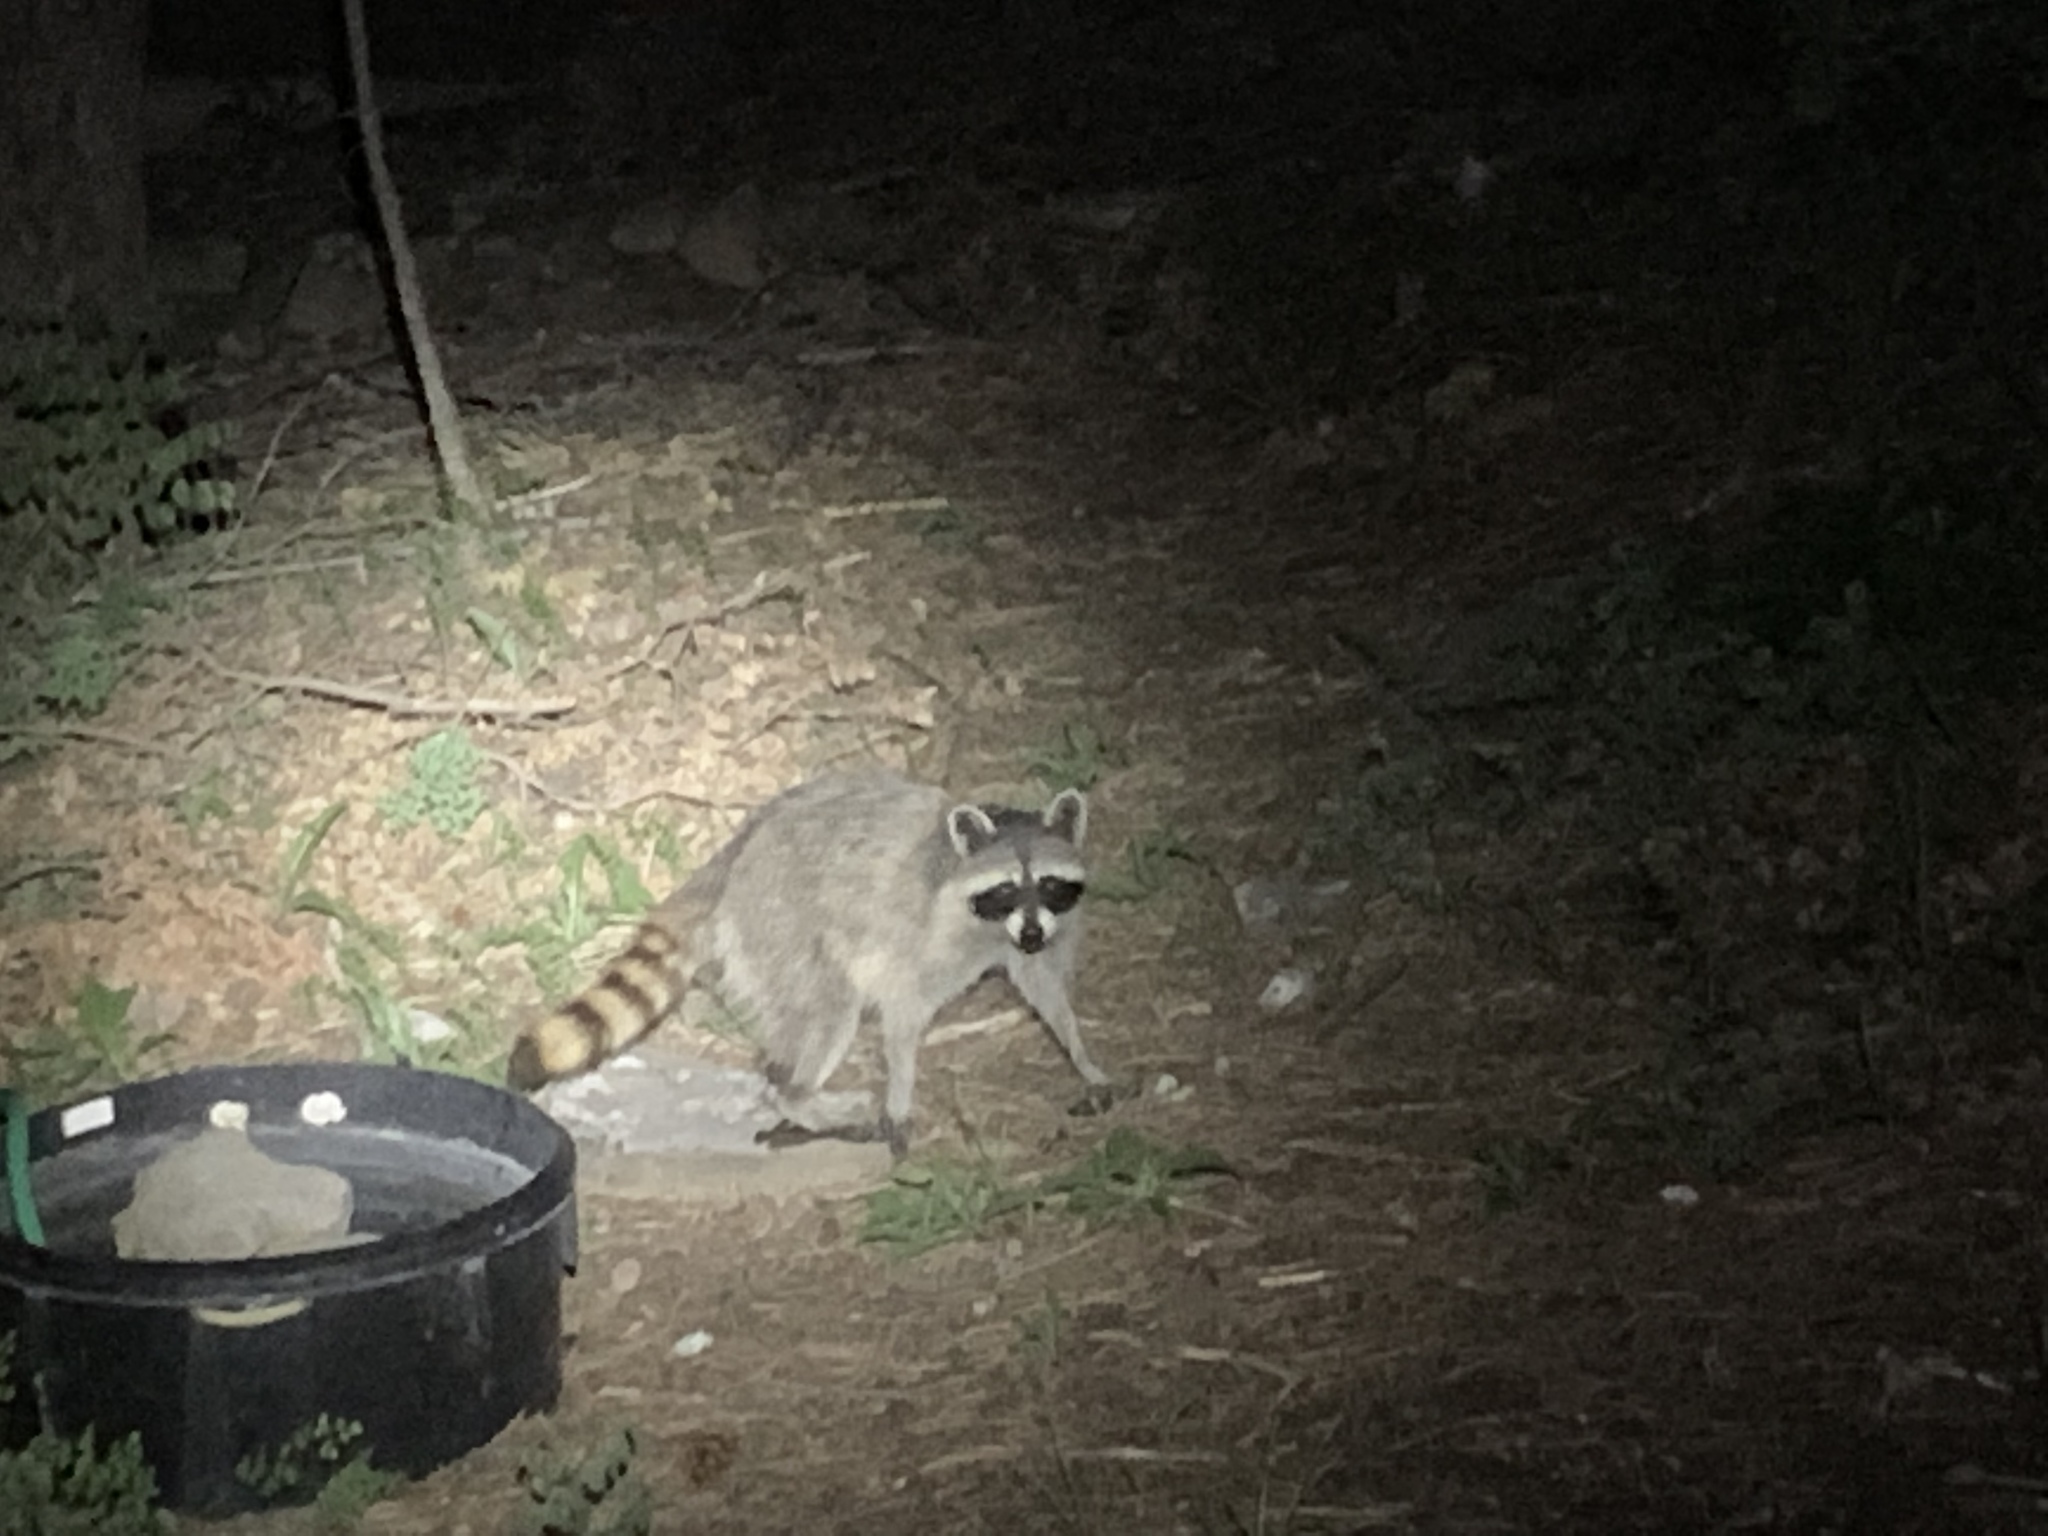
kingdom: Animalia
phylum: Chordata
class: Mammalia
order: Carnivora
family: Procyonidae
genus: Procyon
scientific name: Procyon lotor
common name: Raccoon
